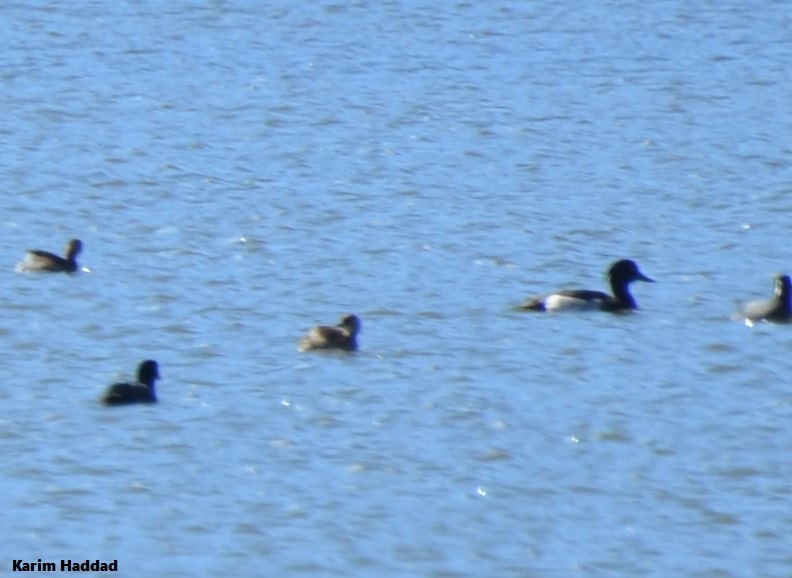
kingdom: Animalia
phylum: Chordata
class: Aves
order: Anseriformes
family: Anatidae
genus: Aythya
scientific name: Aythya fuligula
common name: Tufted duck
